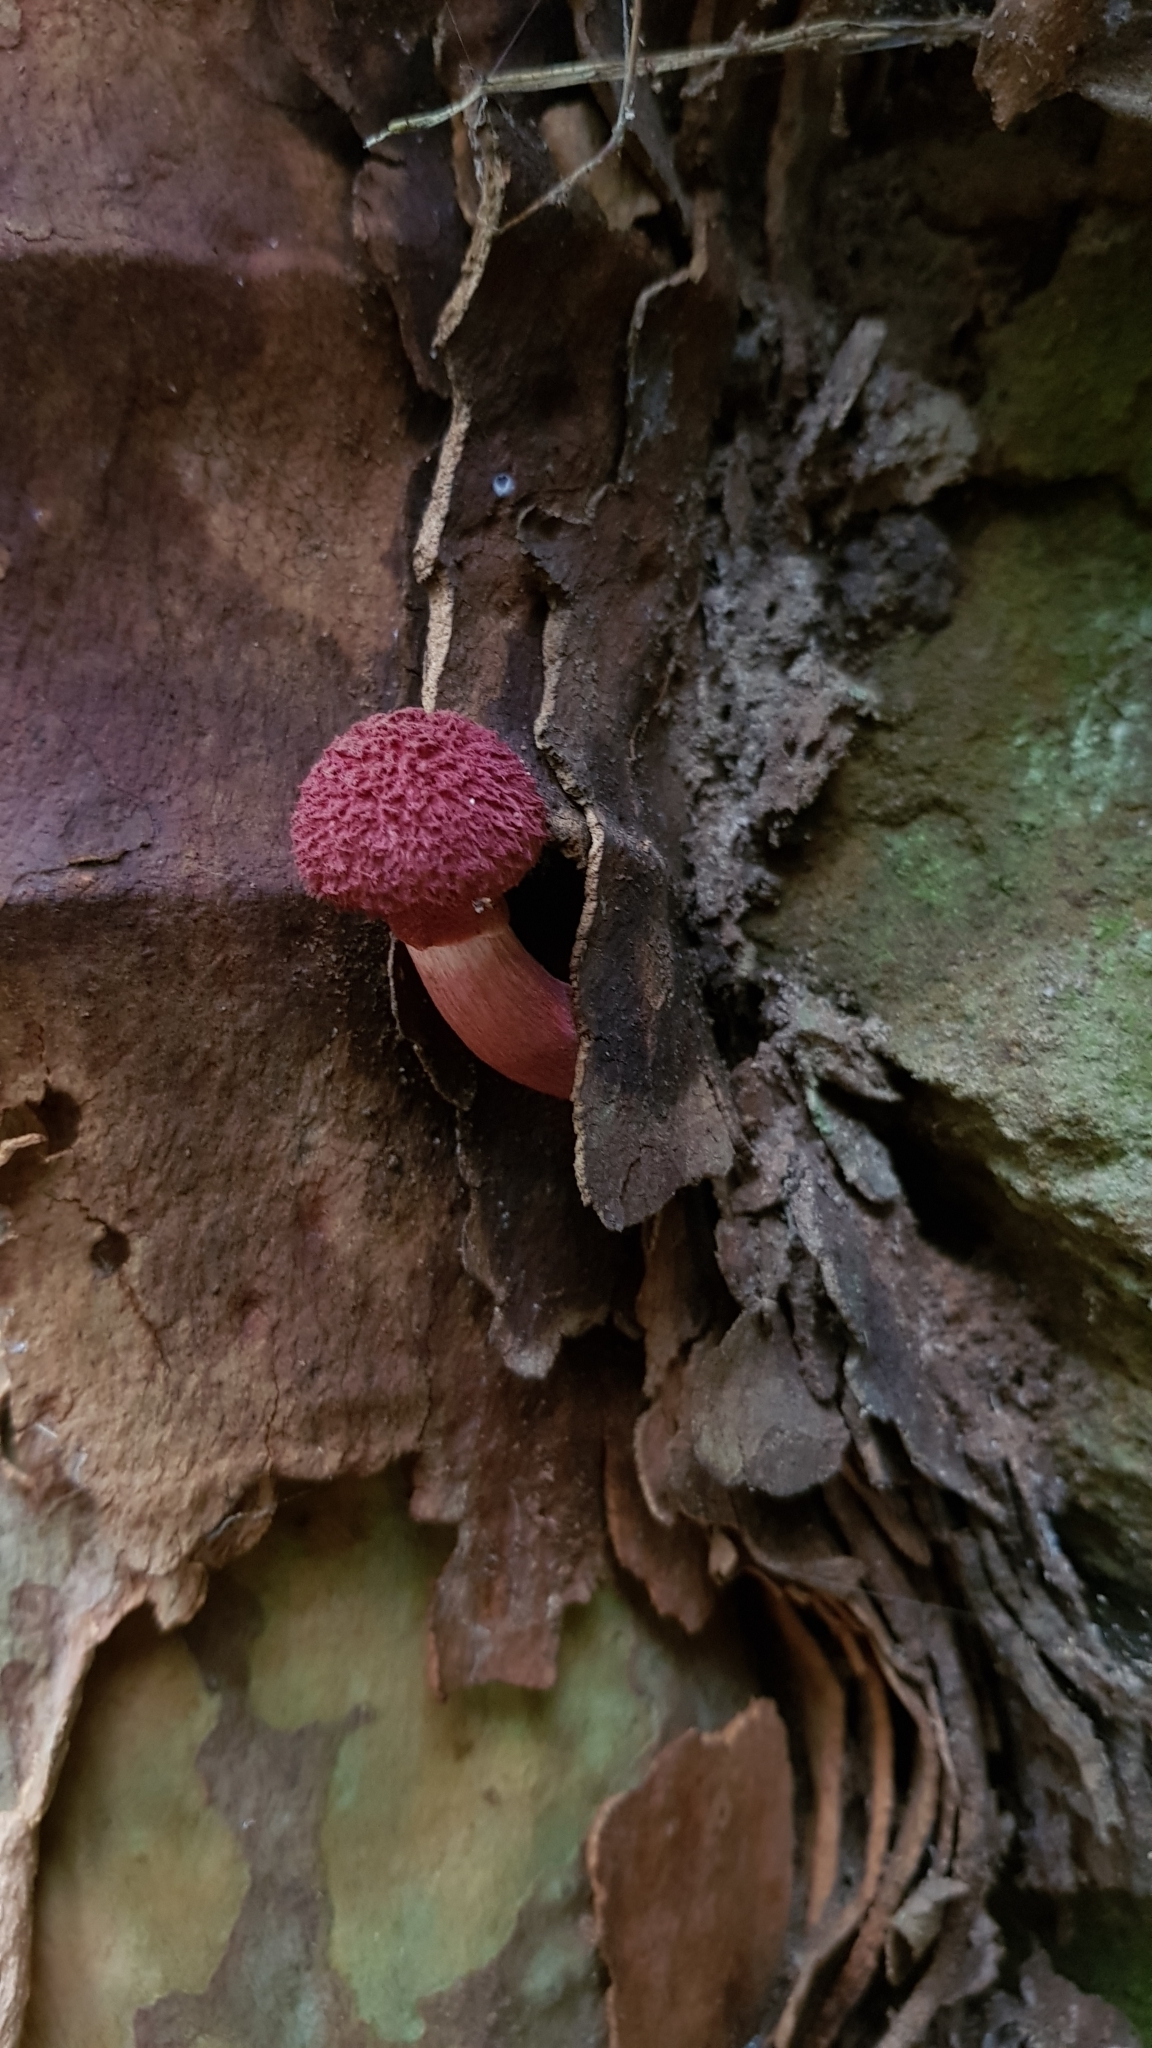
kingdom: Fungi
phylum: Basidiomycota
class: Agaricomycetes
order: Boletales
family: Boletaceae
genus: Boletellus
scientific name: Boletellus emodensis
